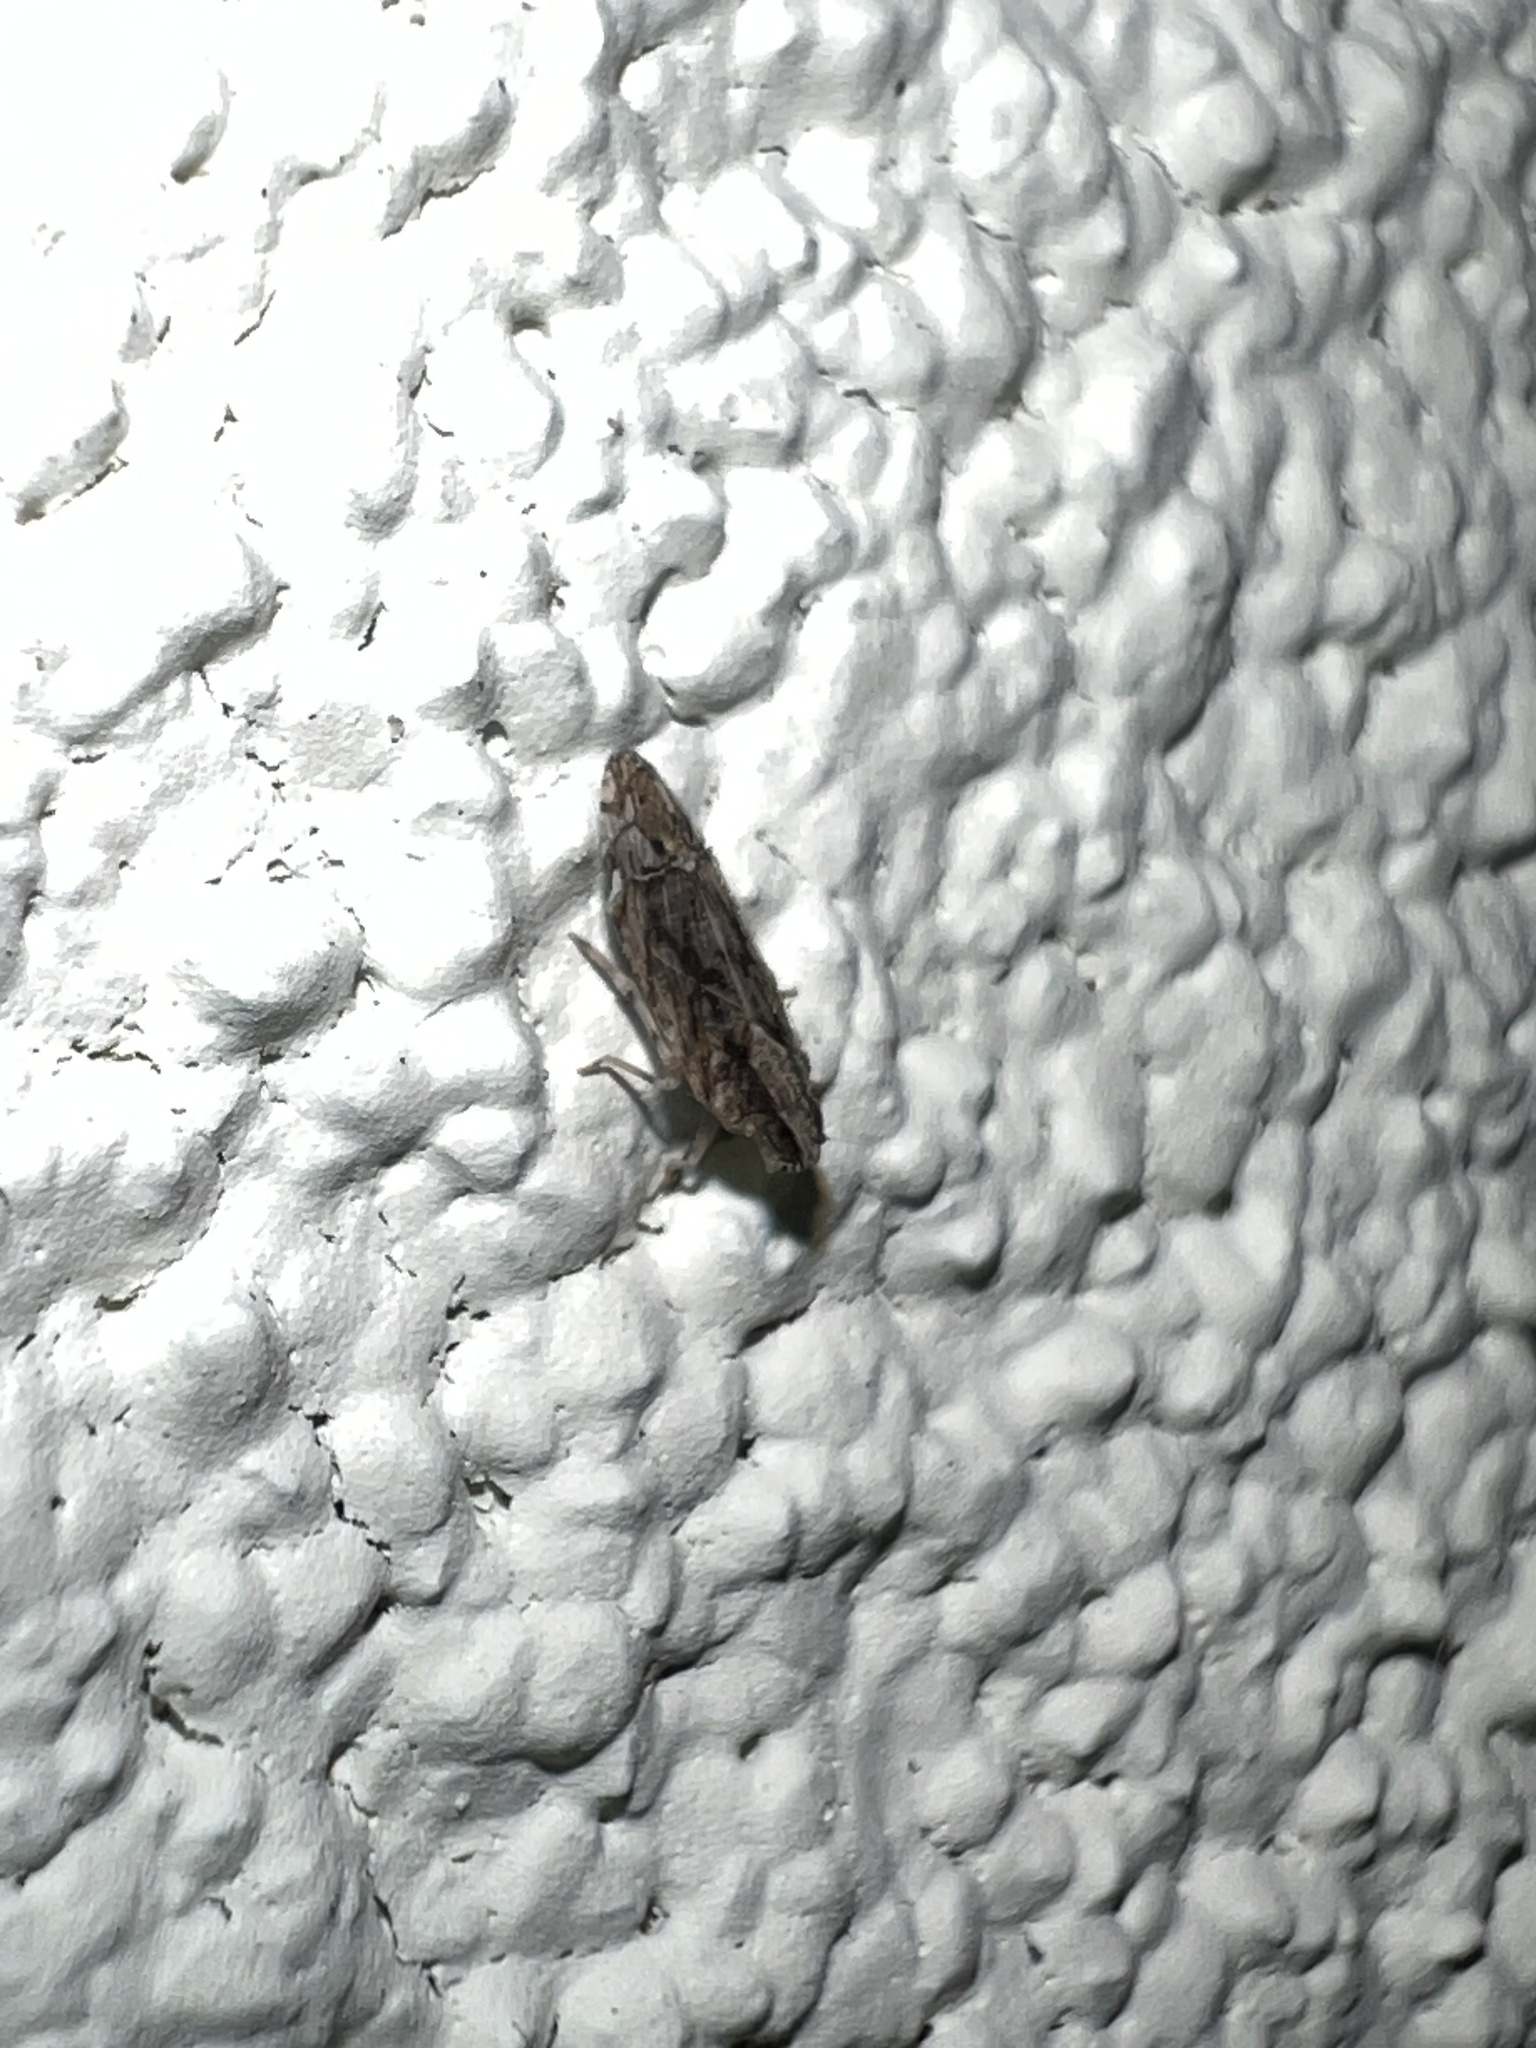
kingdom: Animalia
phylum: Arthropoda
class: Insecta
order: Hemiptera
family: Cixiidae
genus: Nymphomyndus
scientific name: Nymphomyndus caribbea
